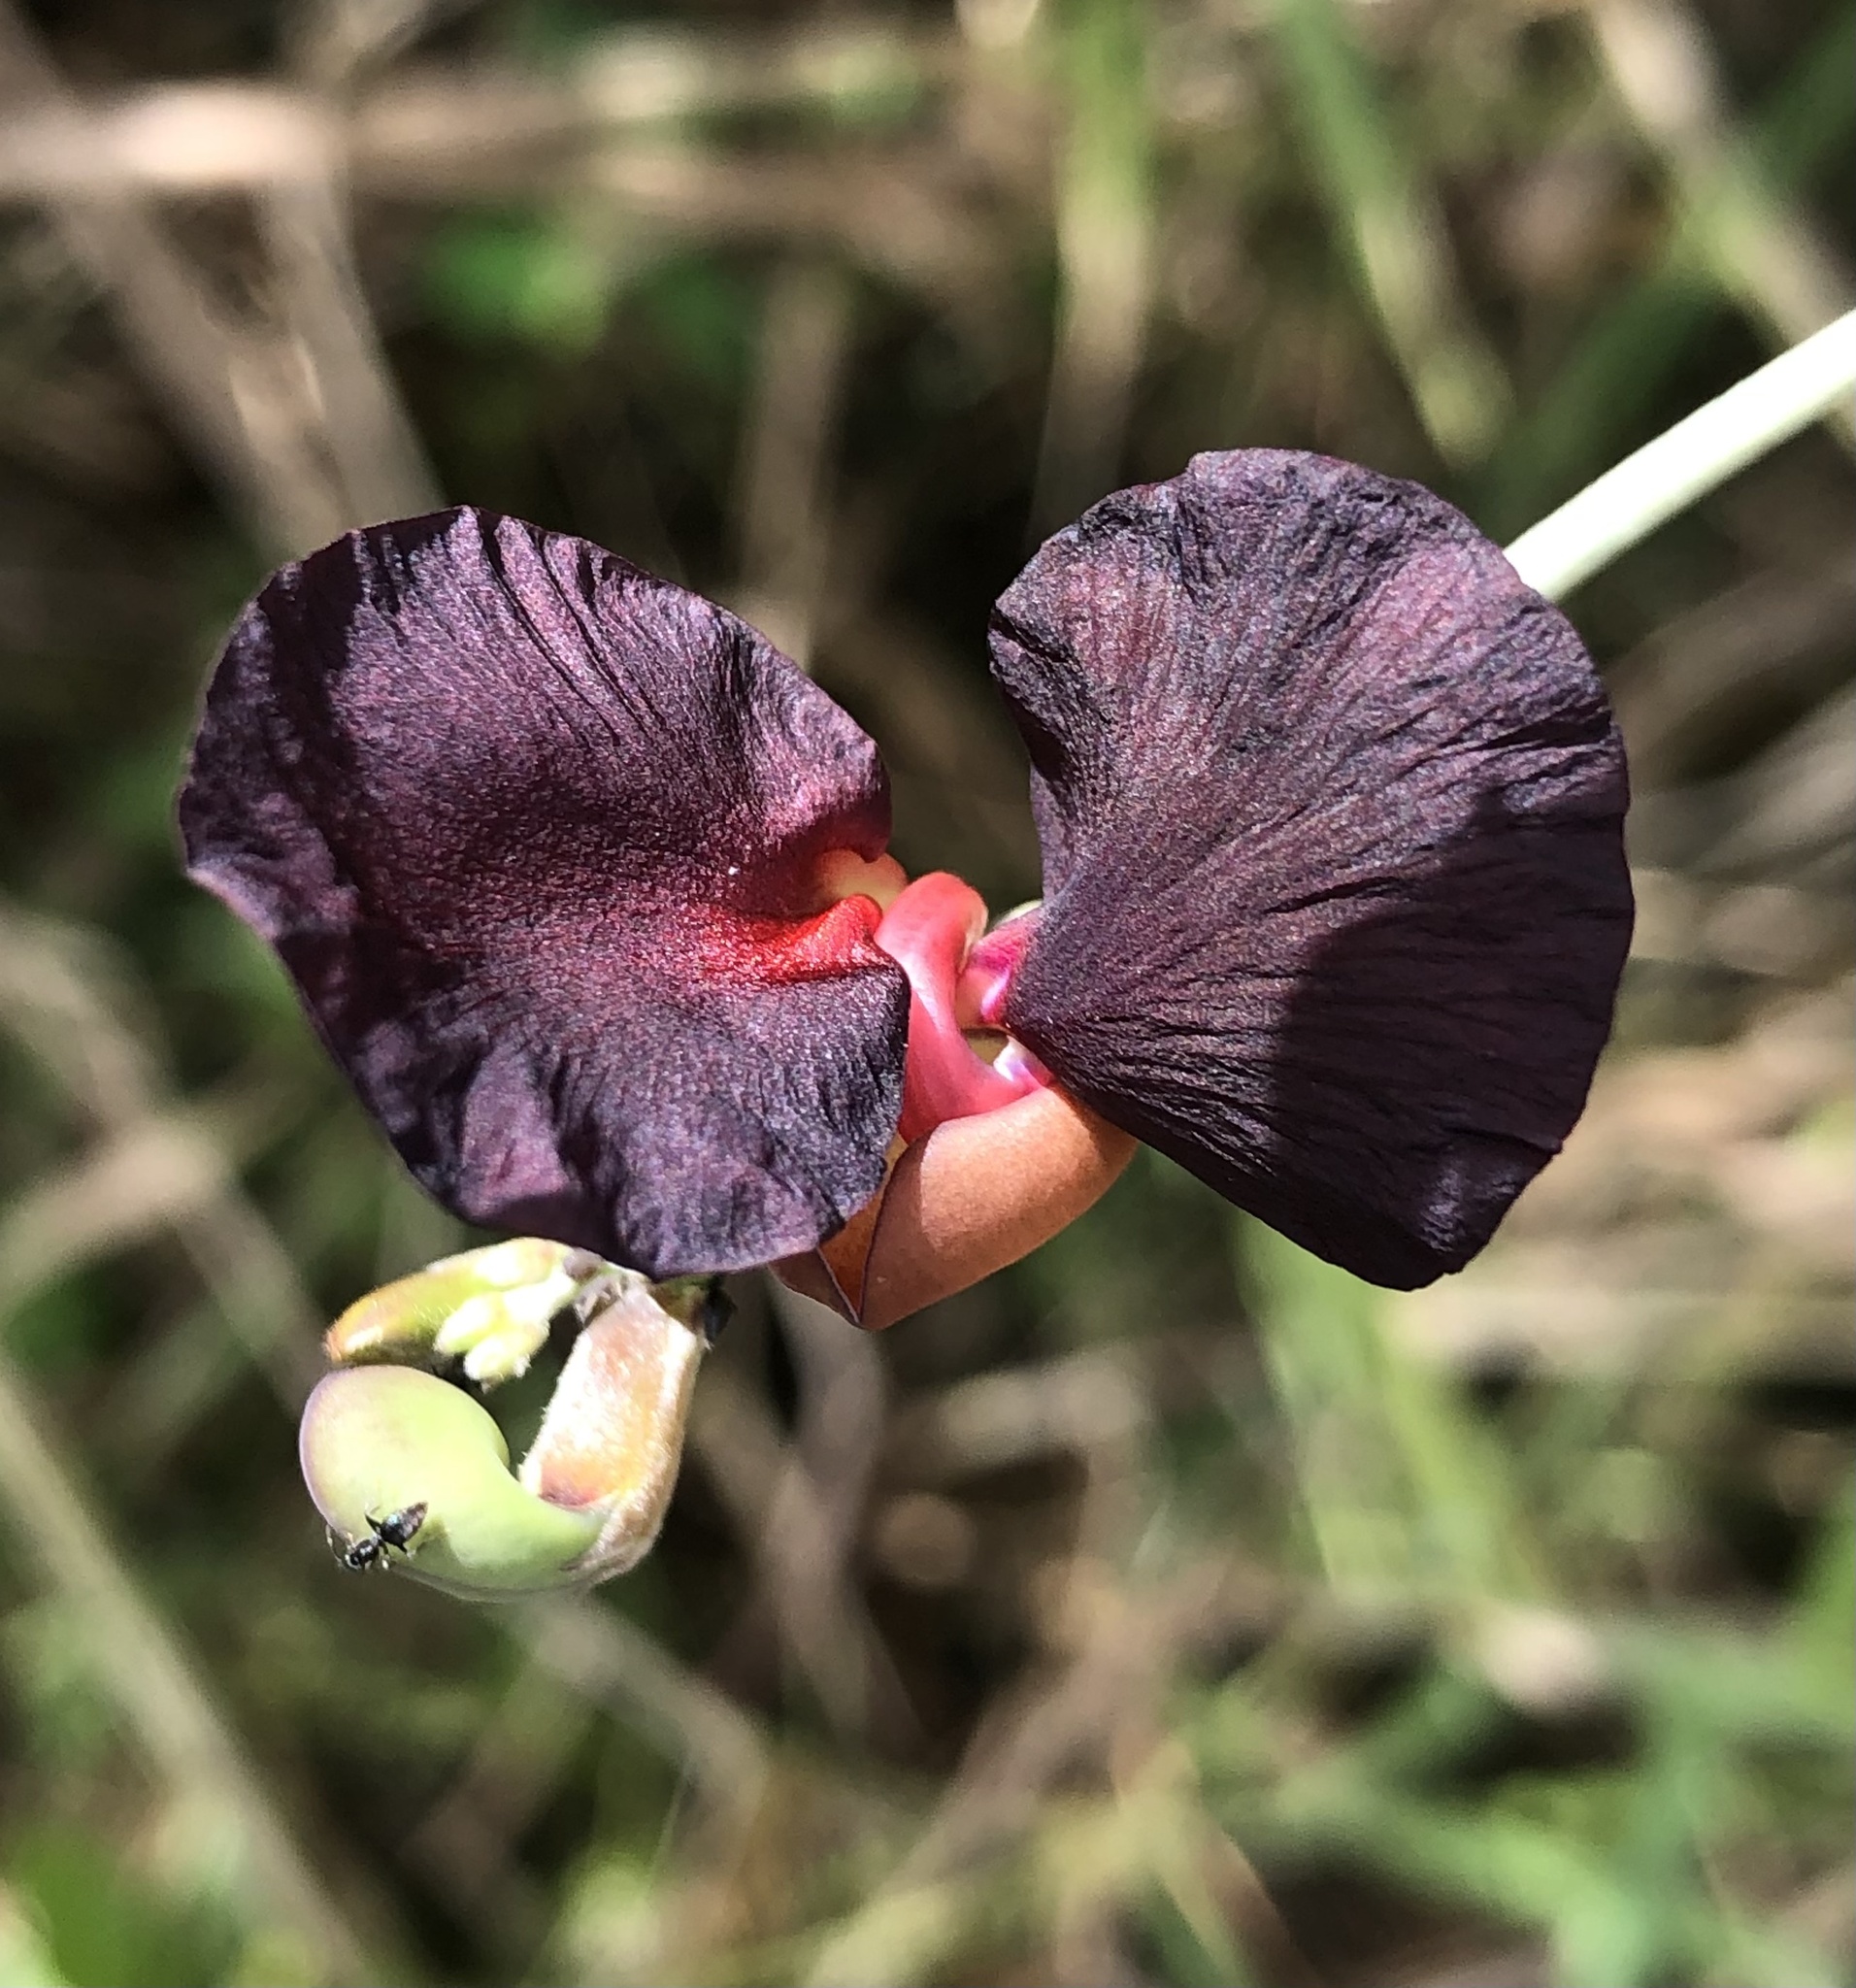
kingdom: Plantae
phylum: Tracheophyta
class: Magnoliopsida
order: Fabales
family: Fabaceae
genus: Macroptilium
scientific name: Macroptilium atropurpureum
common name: Purple bushbean
